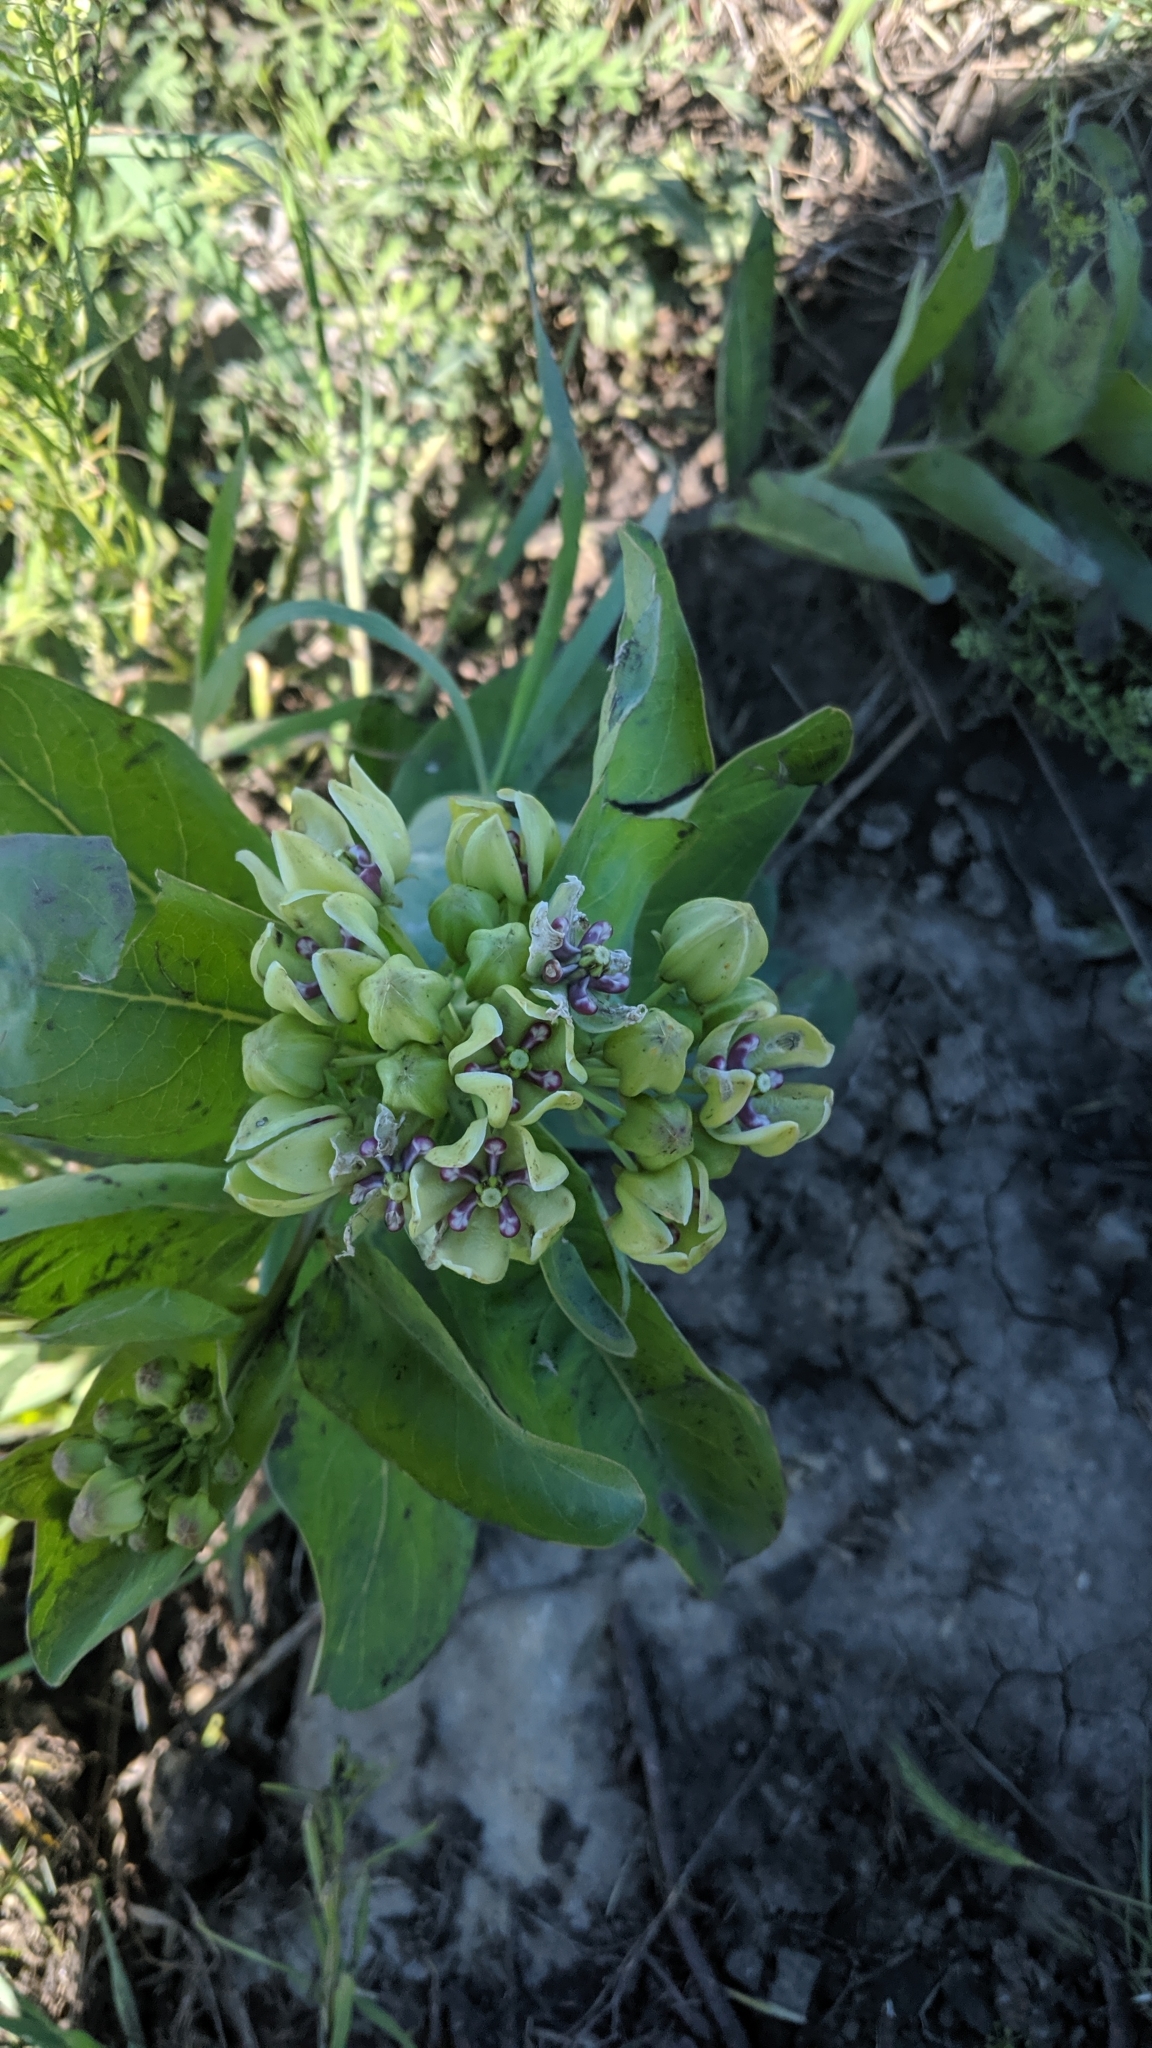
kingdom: Plantae
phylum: Tracheophyta
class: Magnoliopsida
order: Gentianales
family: Apocynaceae
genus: Asclepias
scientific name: Asclepias viridis
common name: Antelope-horns
